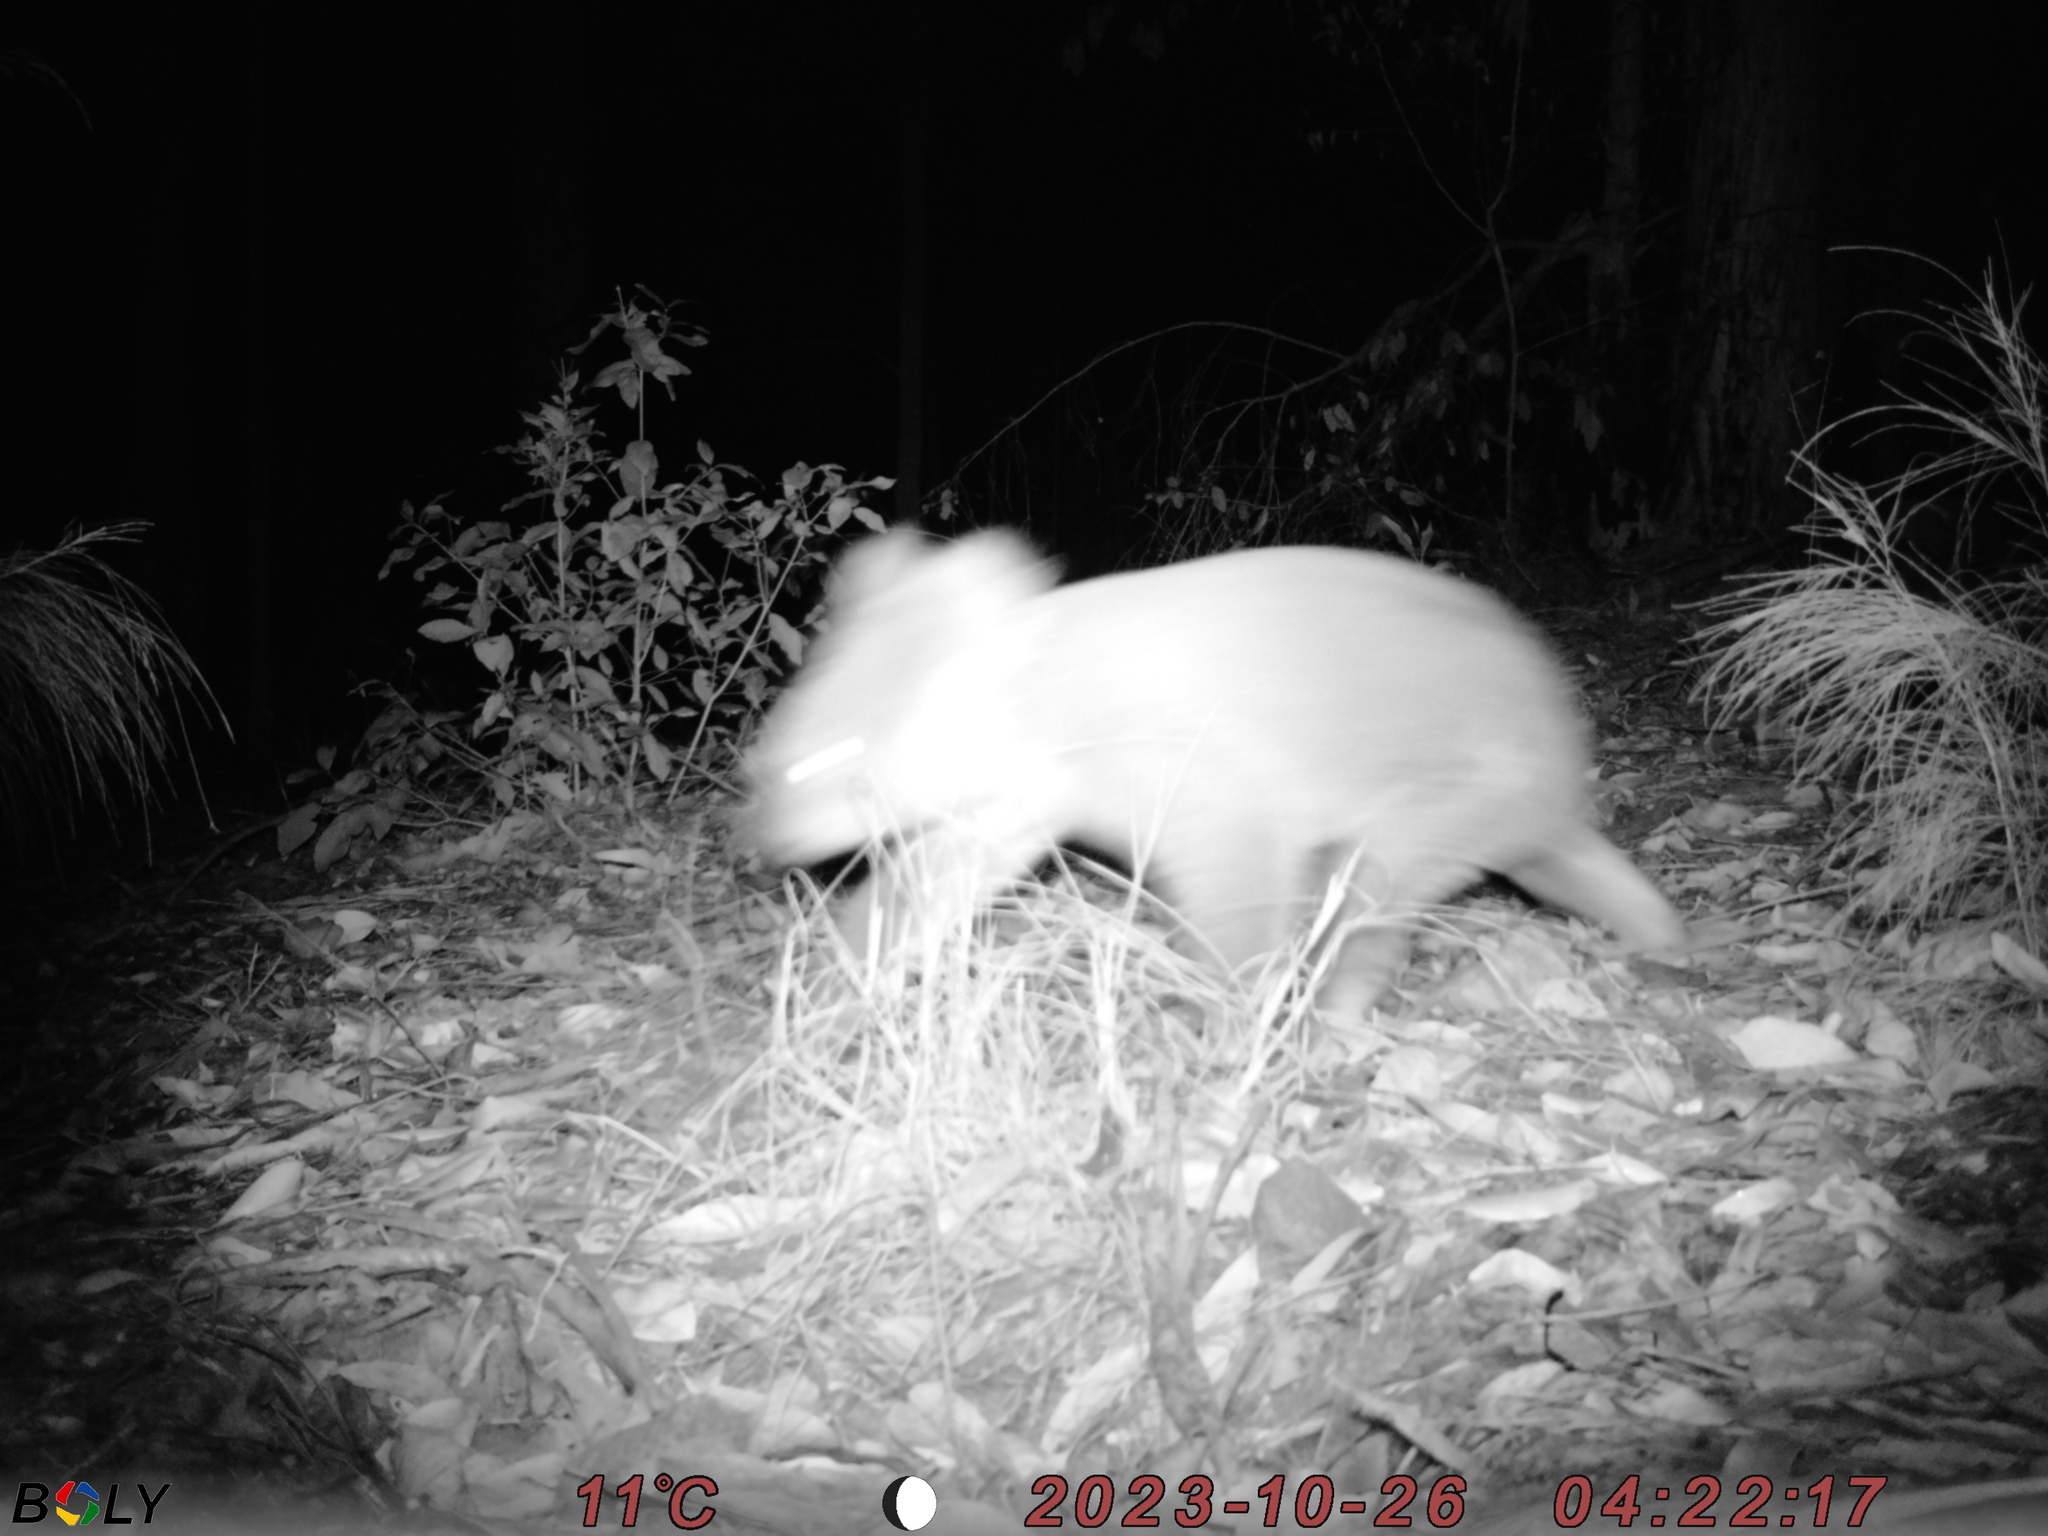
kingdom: Animalia
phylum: Chordata
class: Mammalia
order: Diprotodontia
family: Phascolarctidae
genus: Phascolarctos
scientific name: Phascolarctos cinereus
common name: Koala
